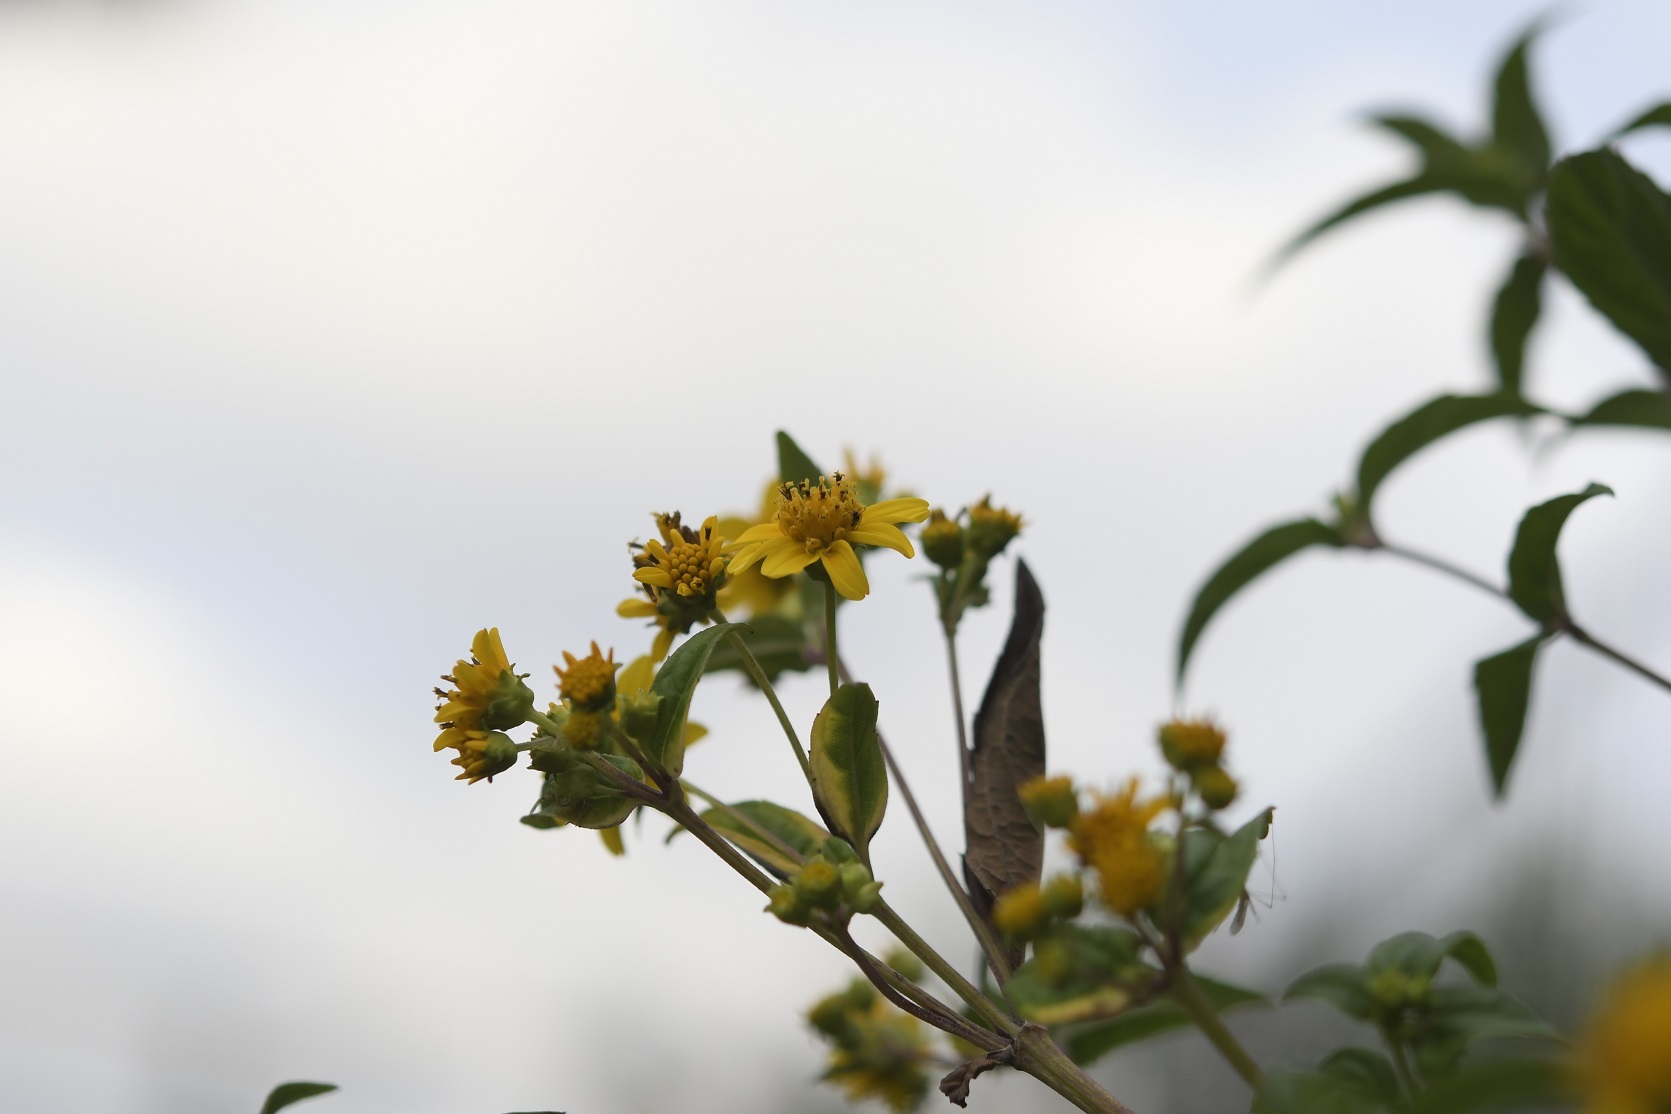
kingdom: Plantae
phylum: Tracheophyta
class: Magnoliopsida
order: Asterales
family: Asteraceae
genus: Perymenium
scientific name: Perymenium ghiesbreghtii
